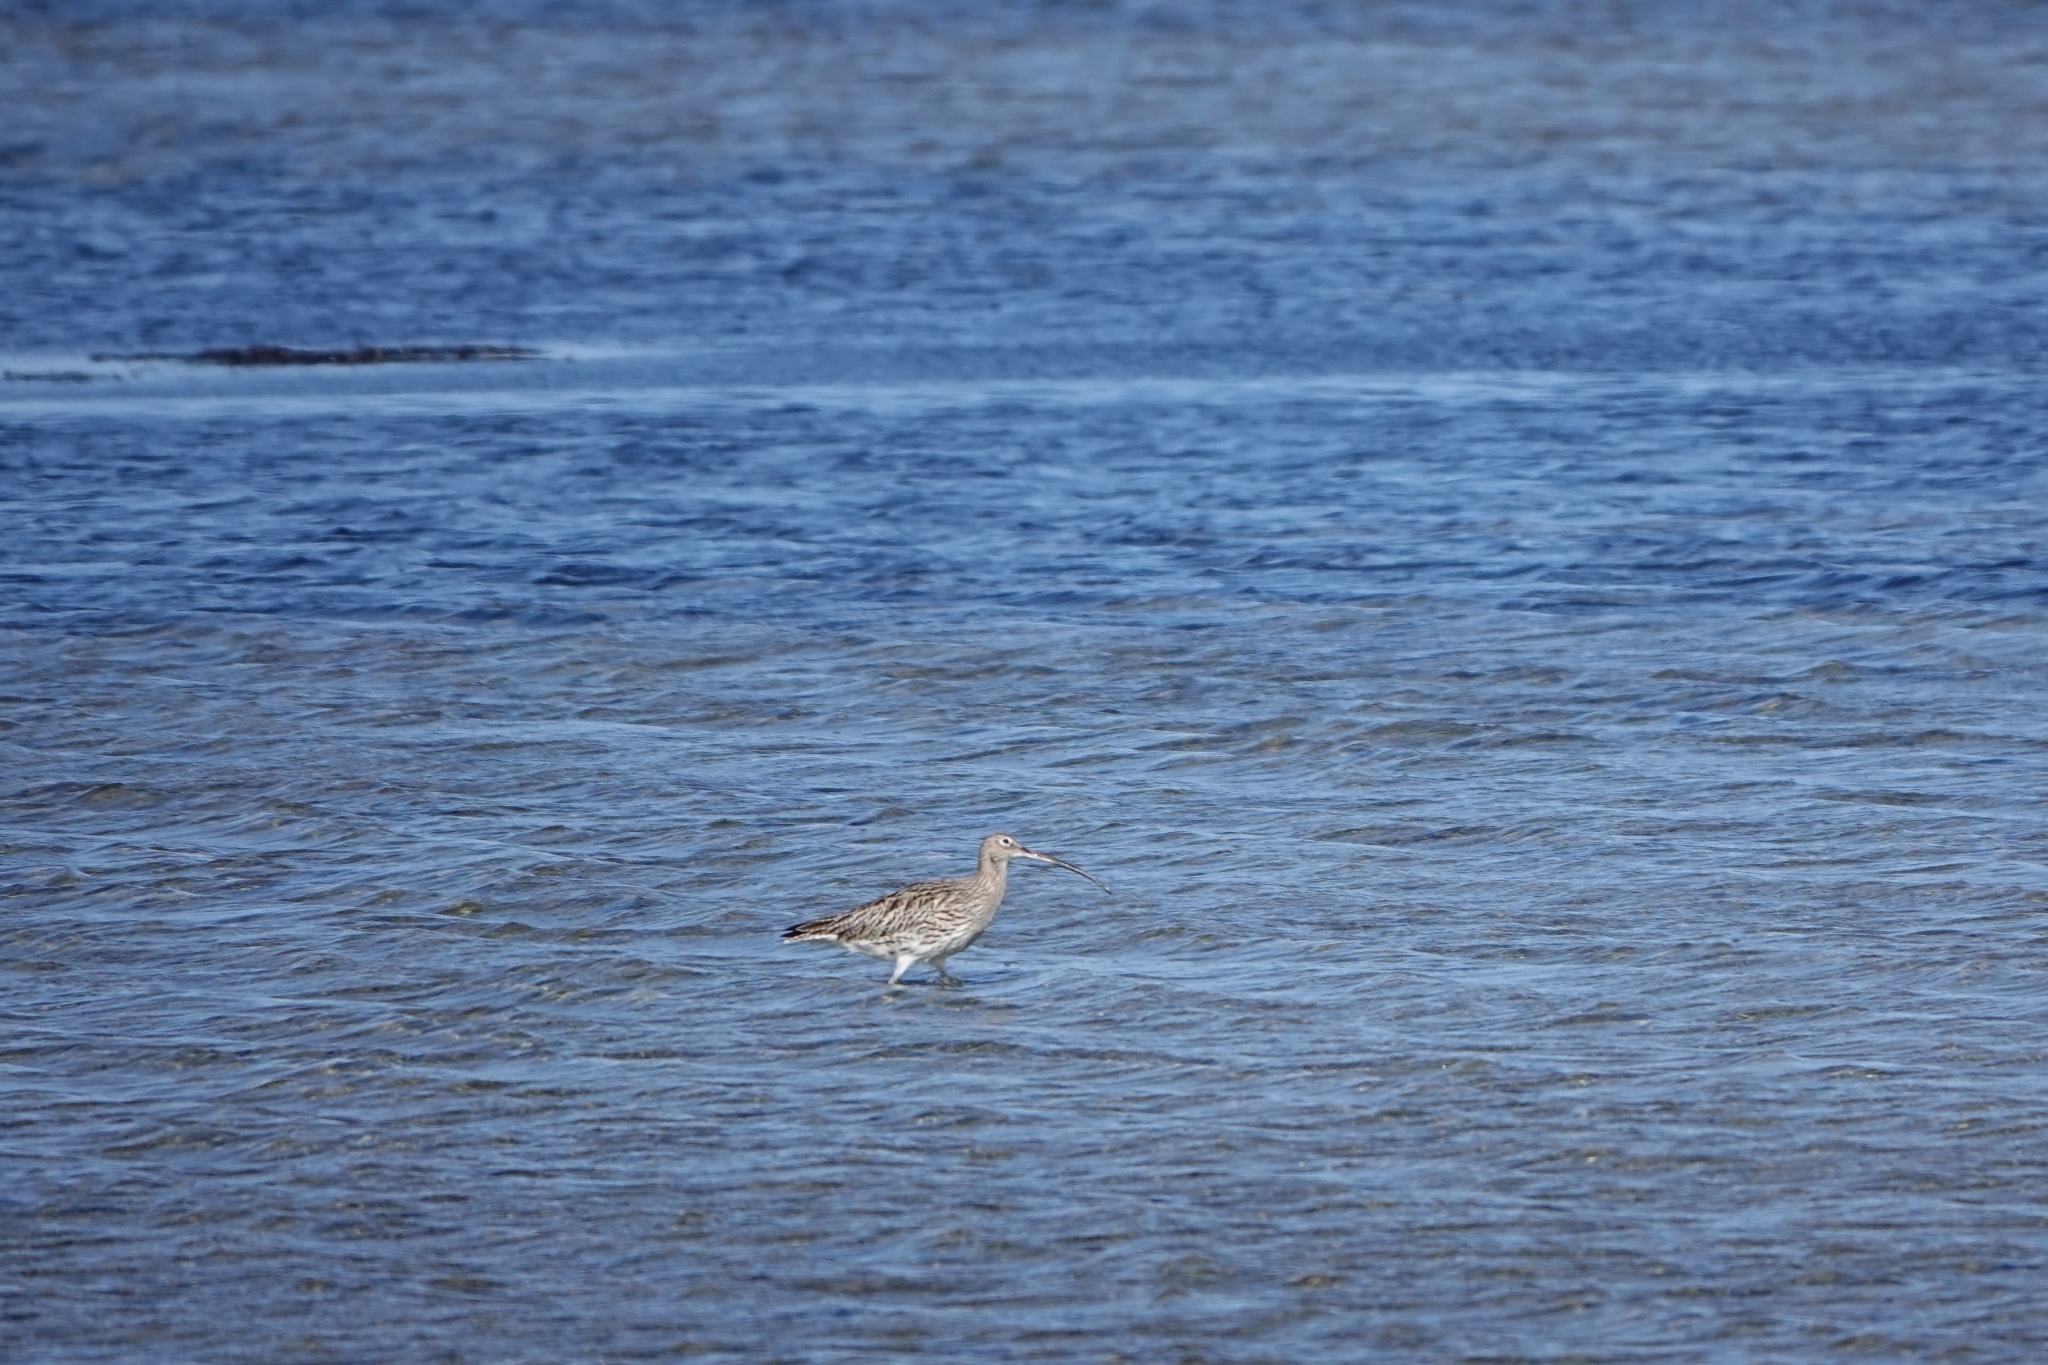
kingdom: Animalia
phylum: Chordata
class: Aves
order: Charadriiformes
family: Scolopacidae
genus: Numenius
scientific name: Numenius arquata
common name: Eurasian curlew
